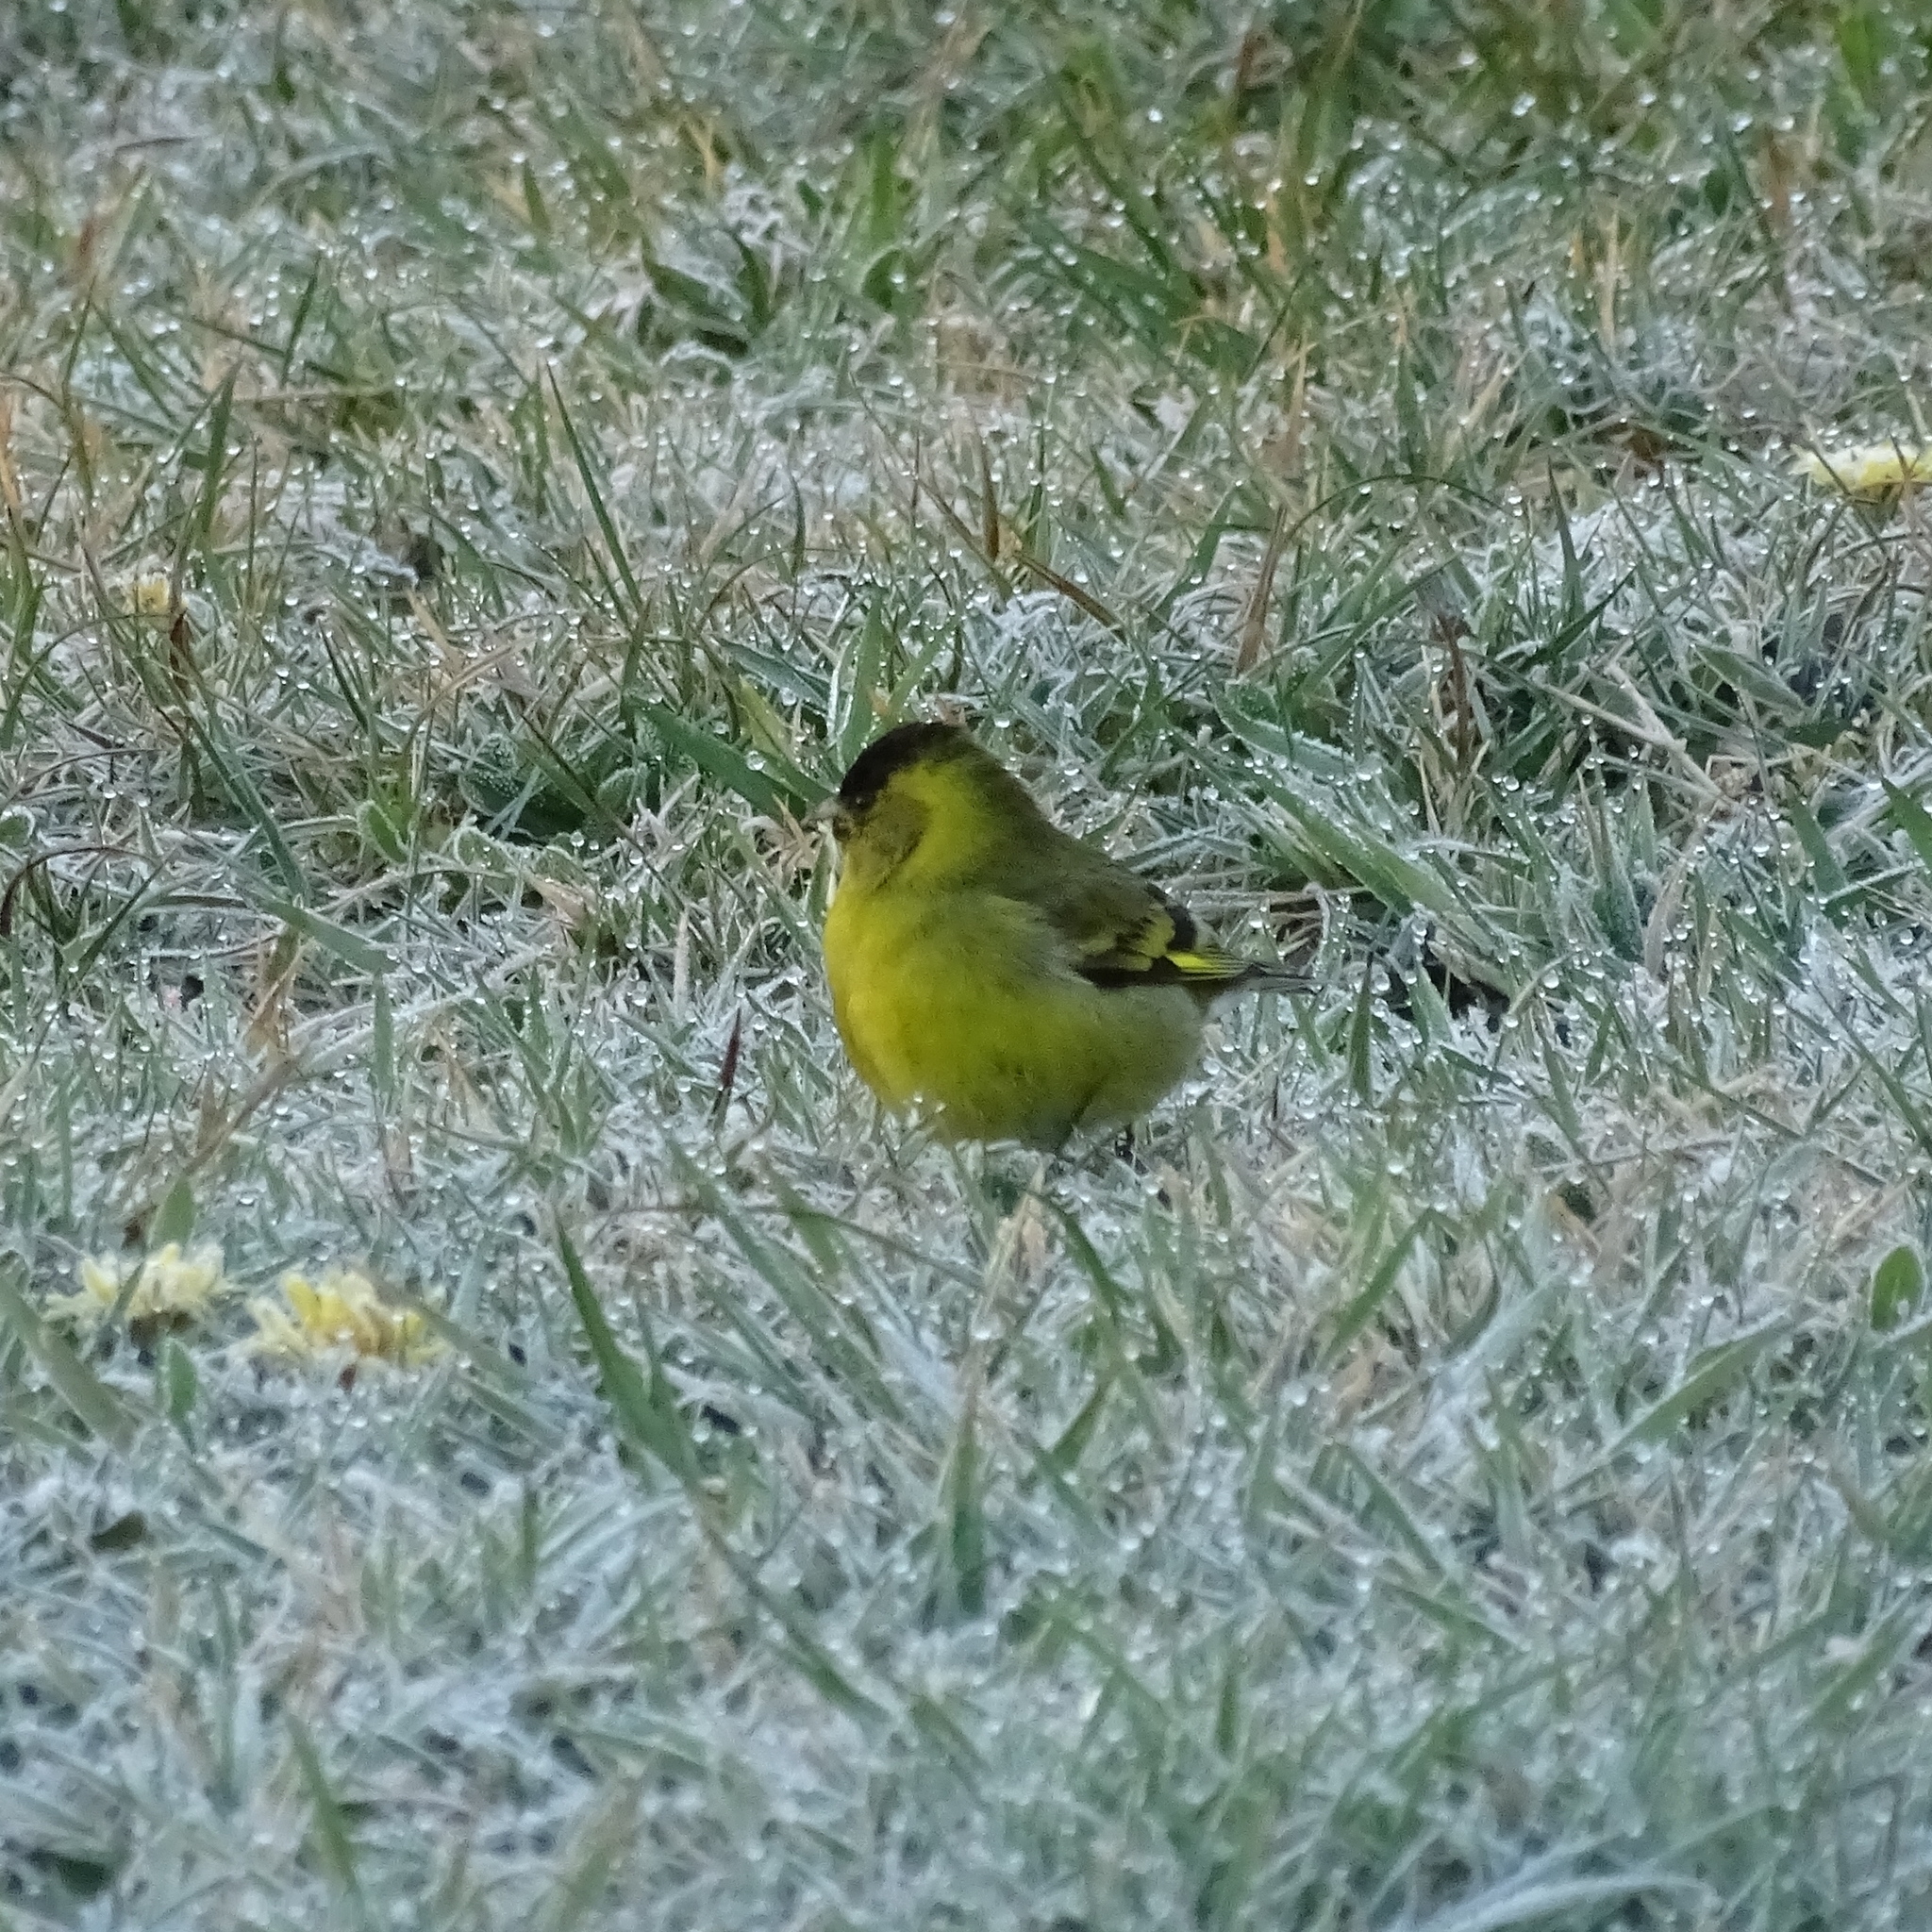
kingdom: Animalia
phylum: Chordata
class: Aves
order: Passeriformes
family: Fringillidae
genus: Spinus
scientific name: Spinus barbatus
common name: Black-chinned siskin
